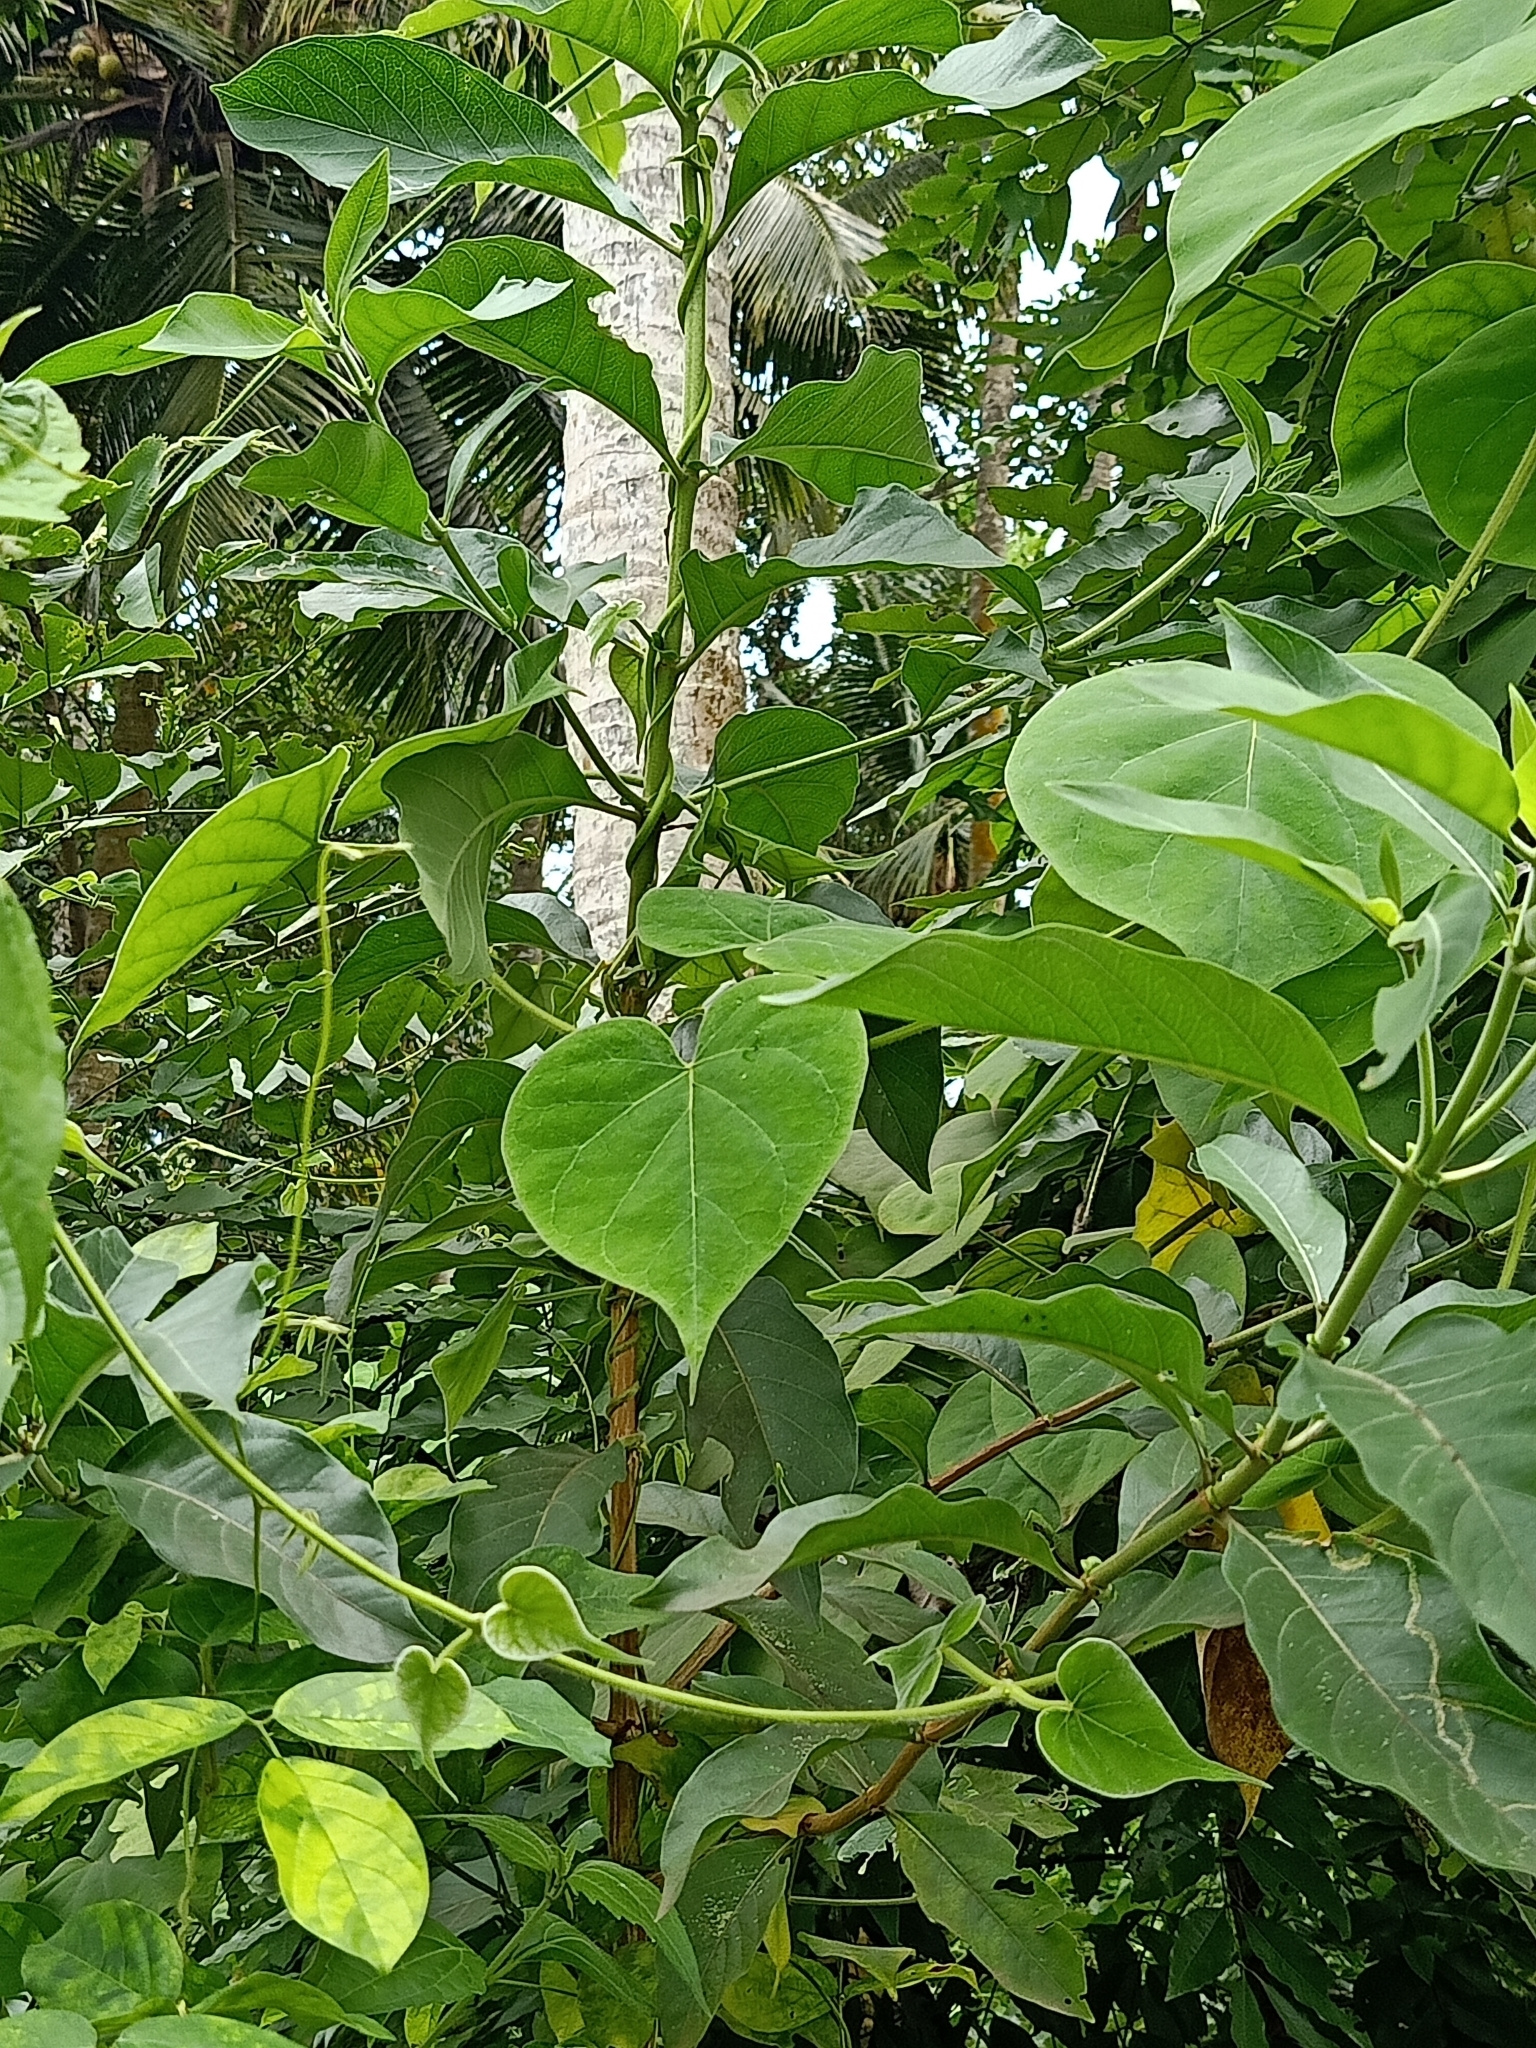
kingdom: Plantae
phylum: Tracheophyta
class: Magnoliopsida
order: Gentianales
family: Apocynaceae
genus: Gongronemopsis
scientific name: Gongronemopsis tenacissima
